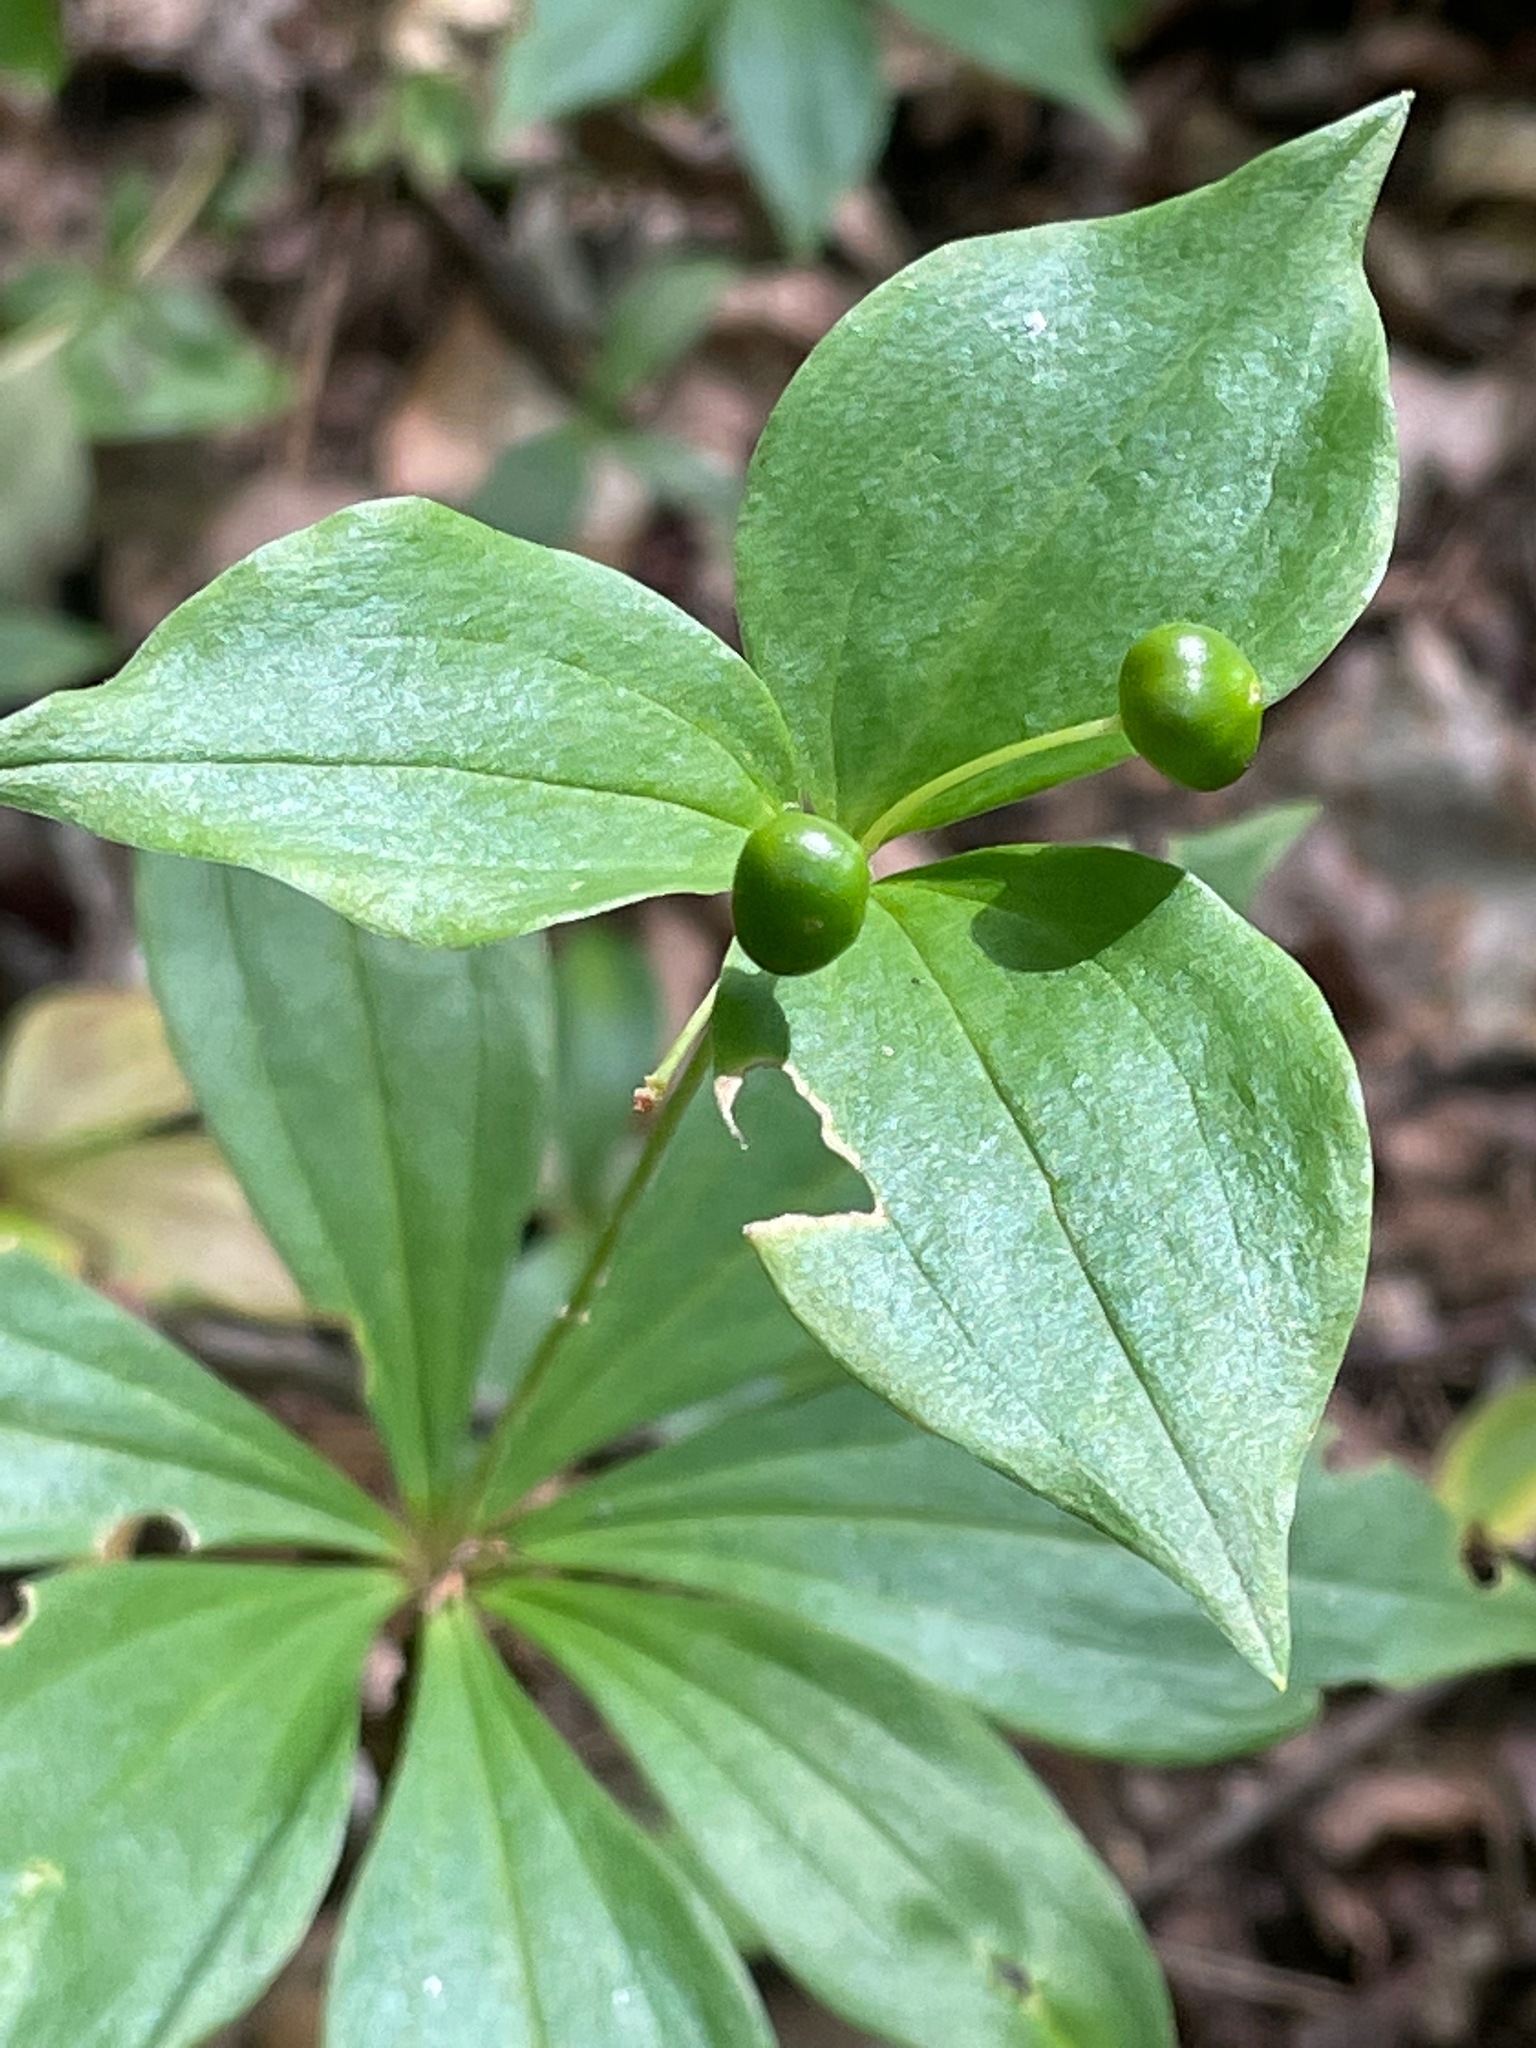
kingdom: Plantae
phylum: Tracheophyta
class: Liliopsida
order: Liliales
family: Liliaceae
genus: Medeola
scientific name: Medeola virginiana
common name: Indian cucumber-root
